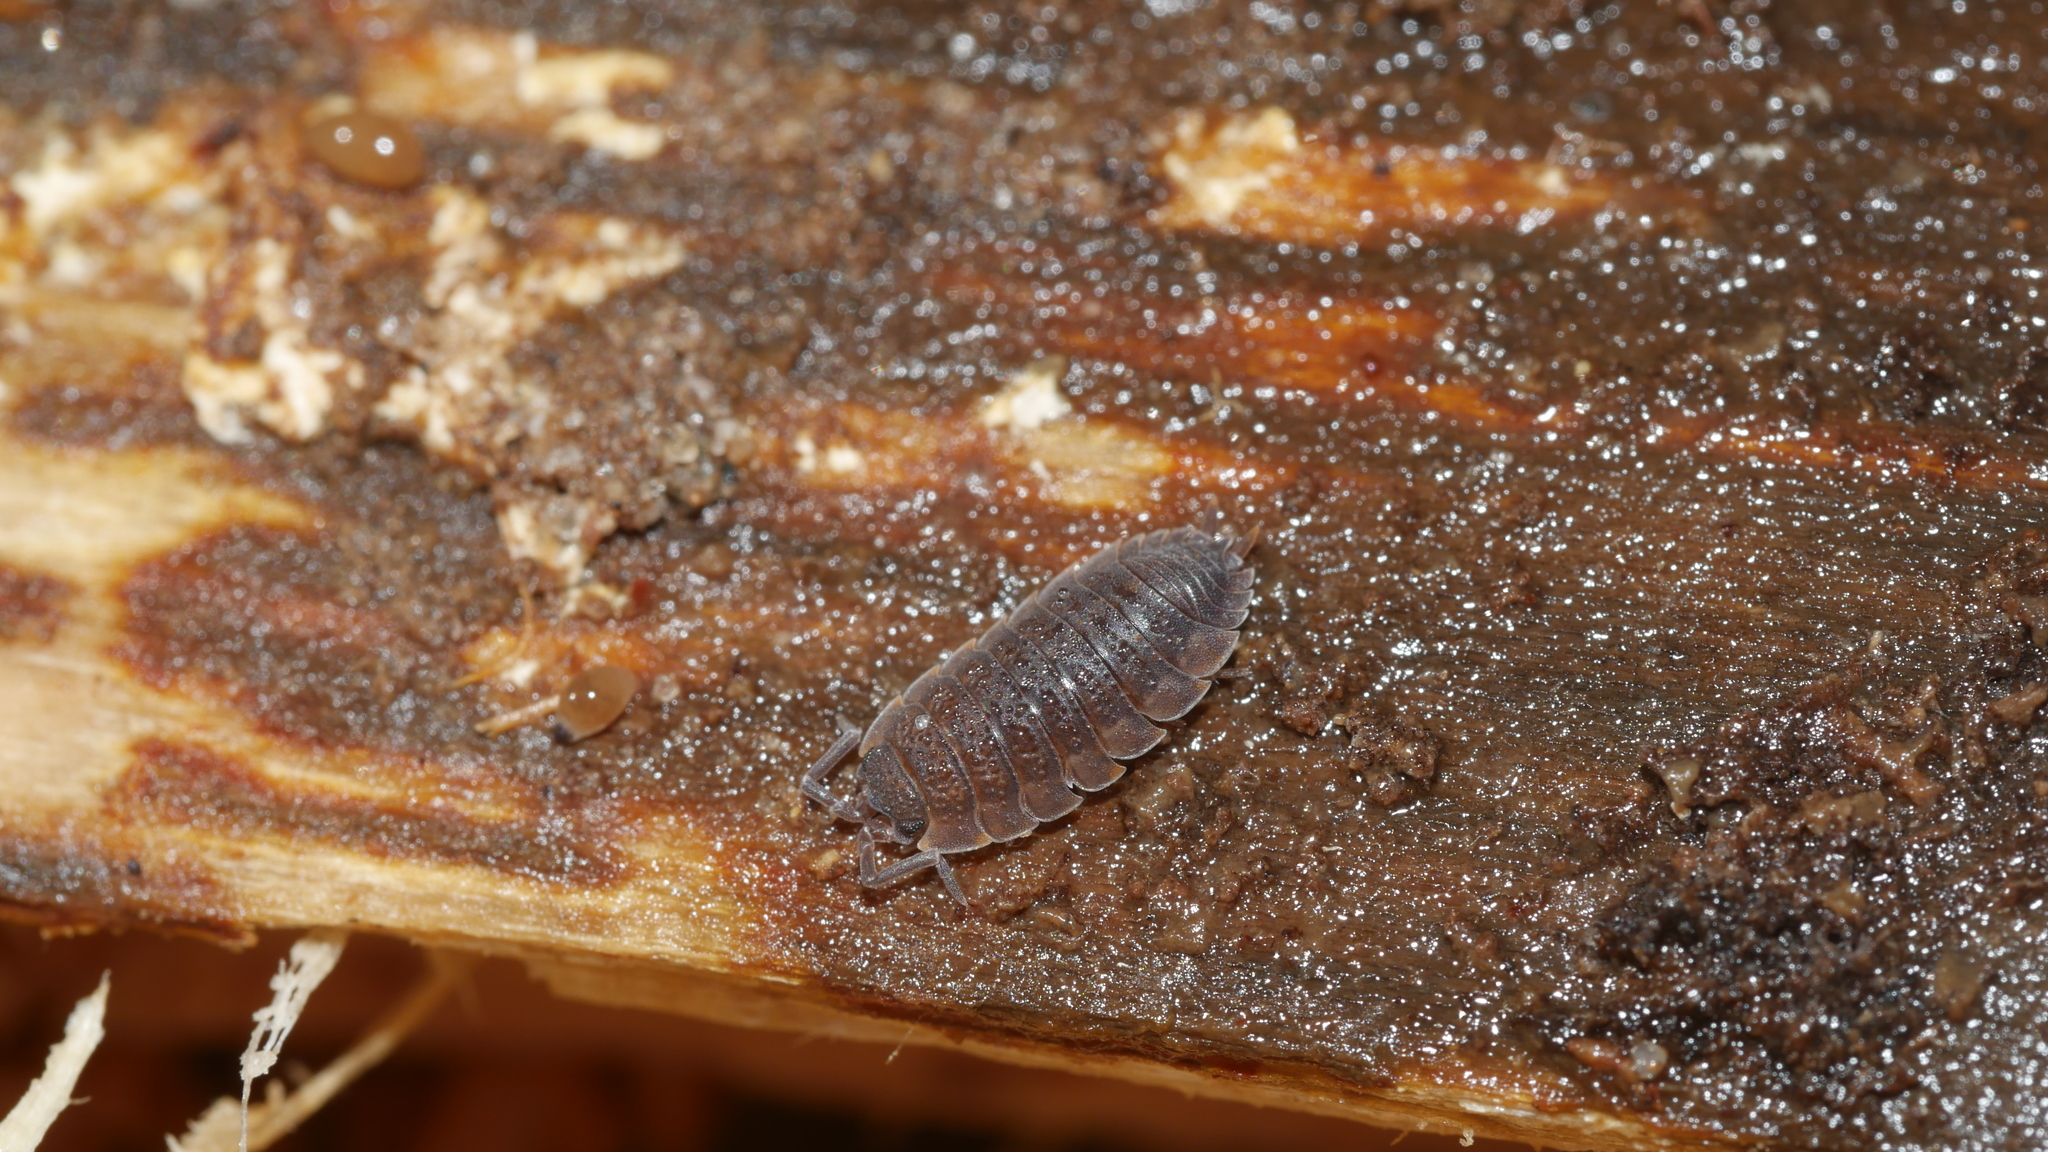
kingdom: Animalia
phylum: Arthropoda
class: Malacostraca
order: Isopoda
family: Porcellionidae
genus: Porcellio
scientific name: Porcellio scaber
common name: Common rough woodlouse
